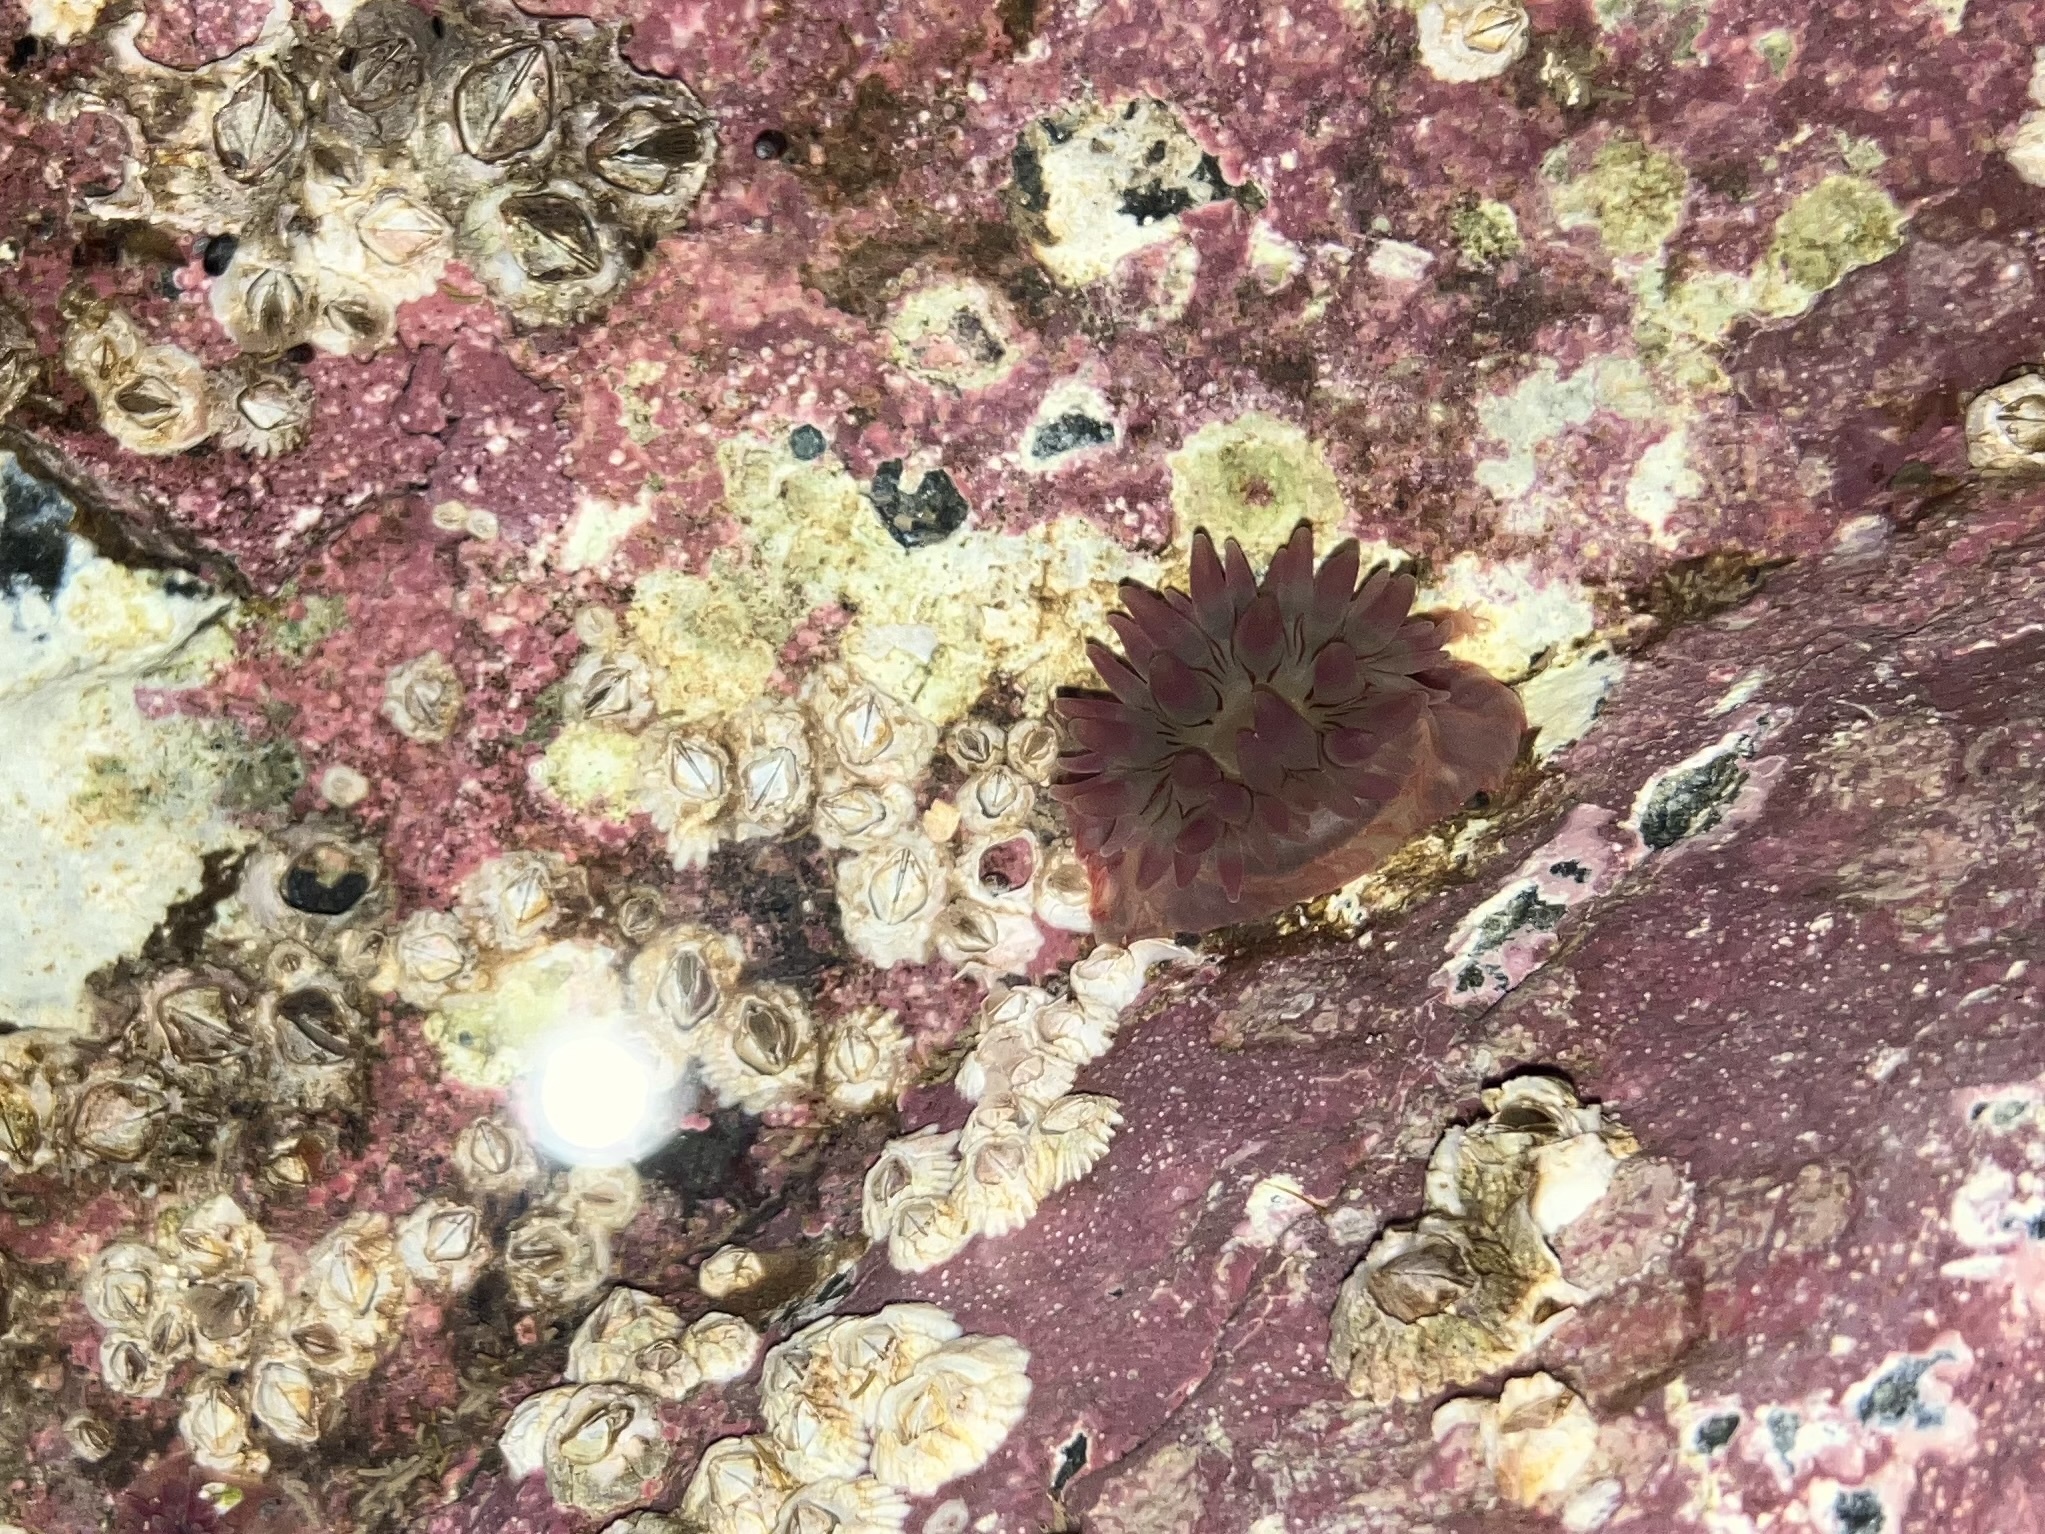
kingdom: Animalia
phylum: Cnidaria
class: Anthozoa
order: Actiniaria
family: Actiniidae
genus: Urticina
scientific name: Urticina crassicornis
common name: Mottled anemone
